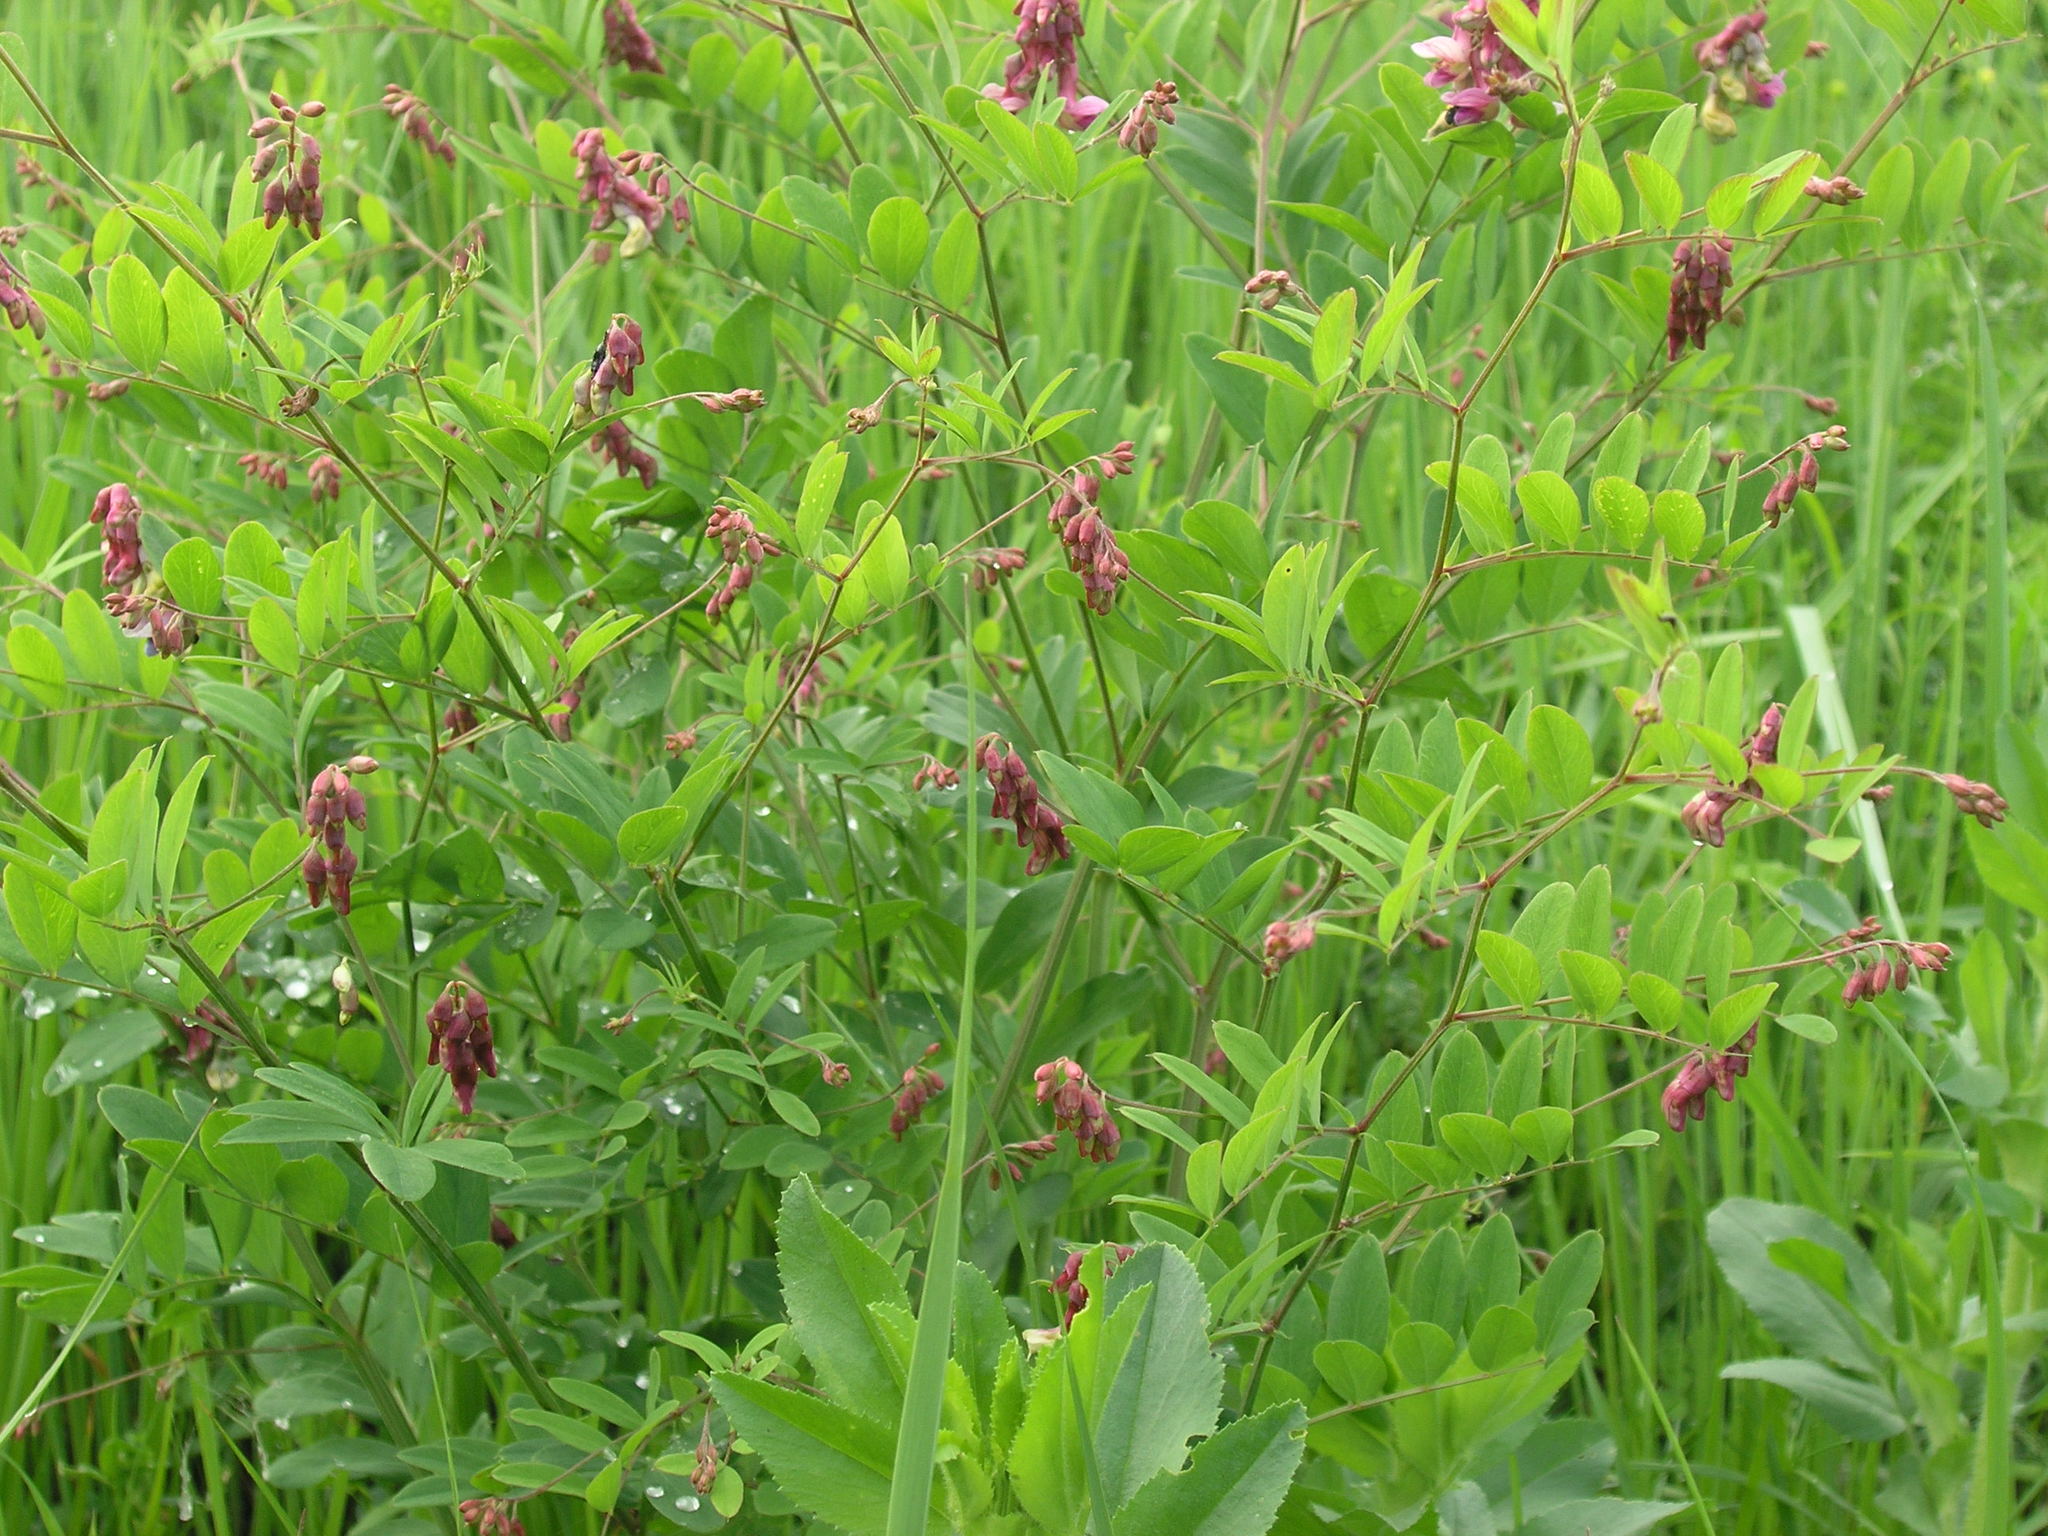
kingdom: Plantae
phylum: Tracheophyta
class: Magnoliopsida
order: Fabales
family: Fabaceae
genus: Lathyrus
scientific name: Lathyrus niger
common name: Black pea
